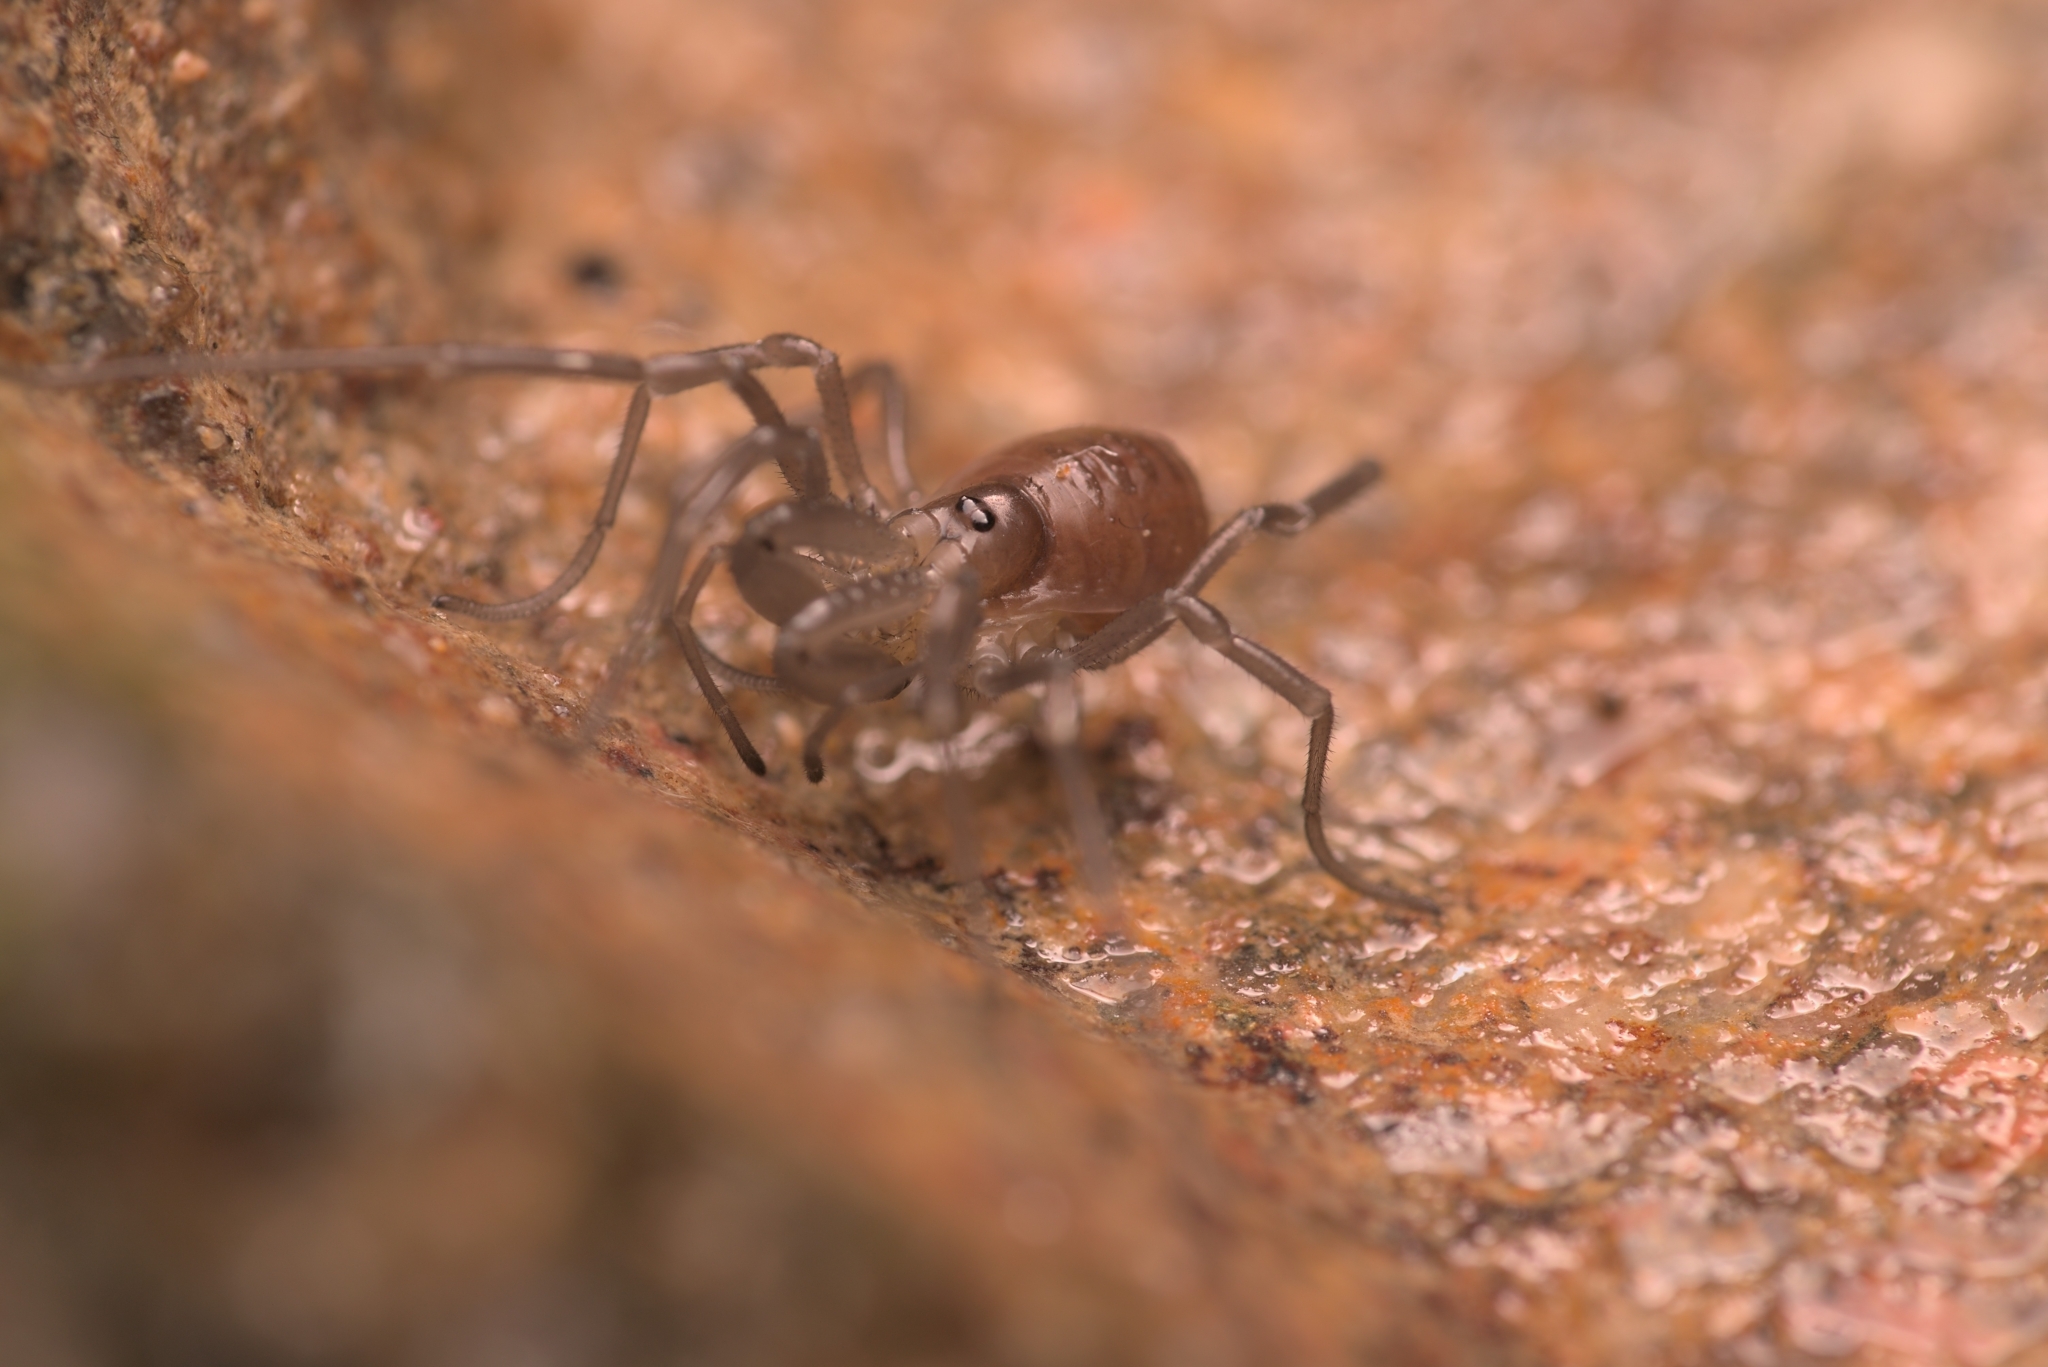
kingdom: Animalia
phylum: Arthropoda
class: Arachnida
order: Opiliones
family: Ischyropsalididae
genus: Ischyropsalis
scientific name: Ischyropsalis luteipes
